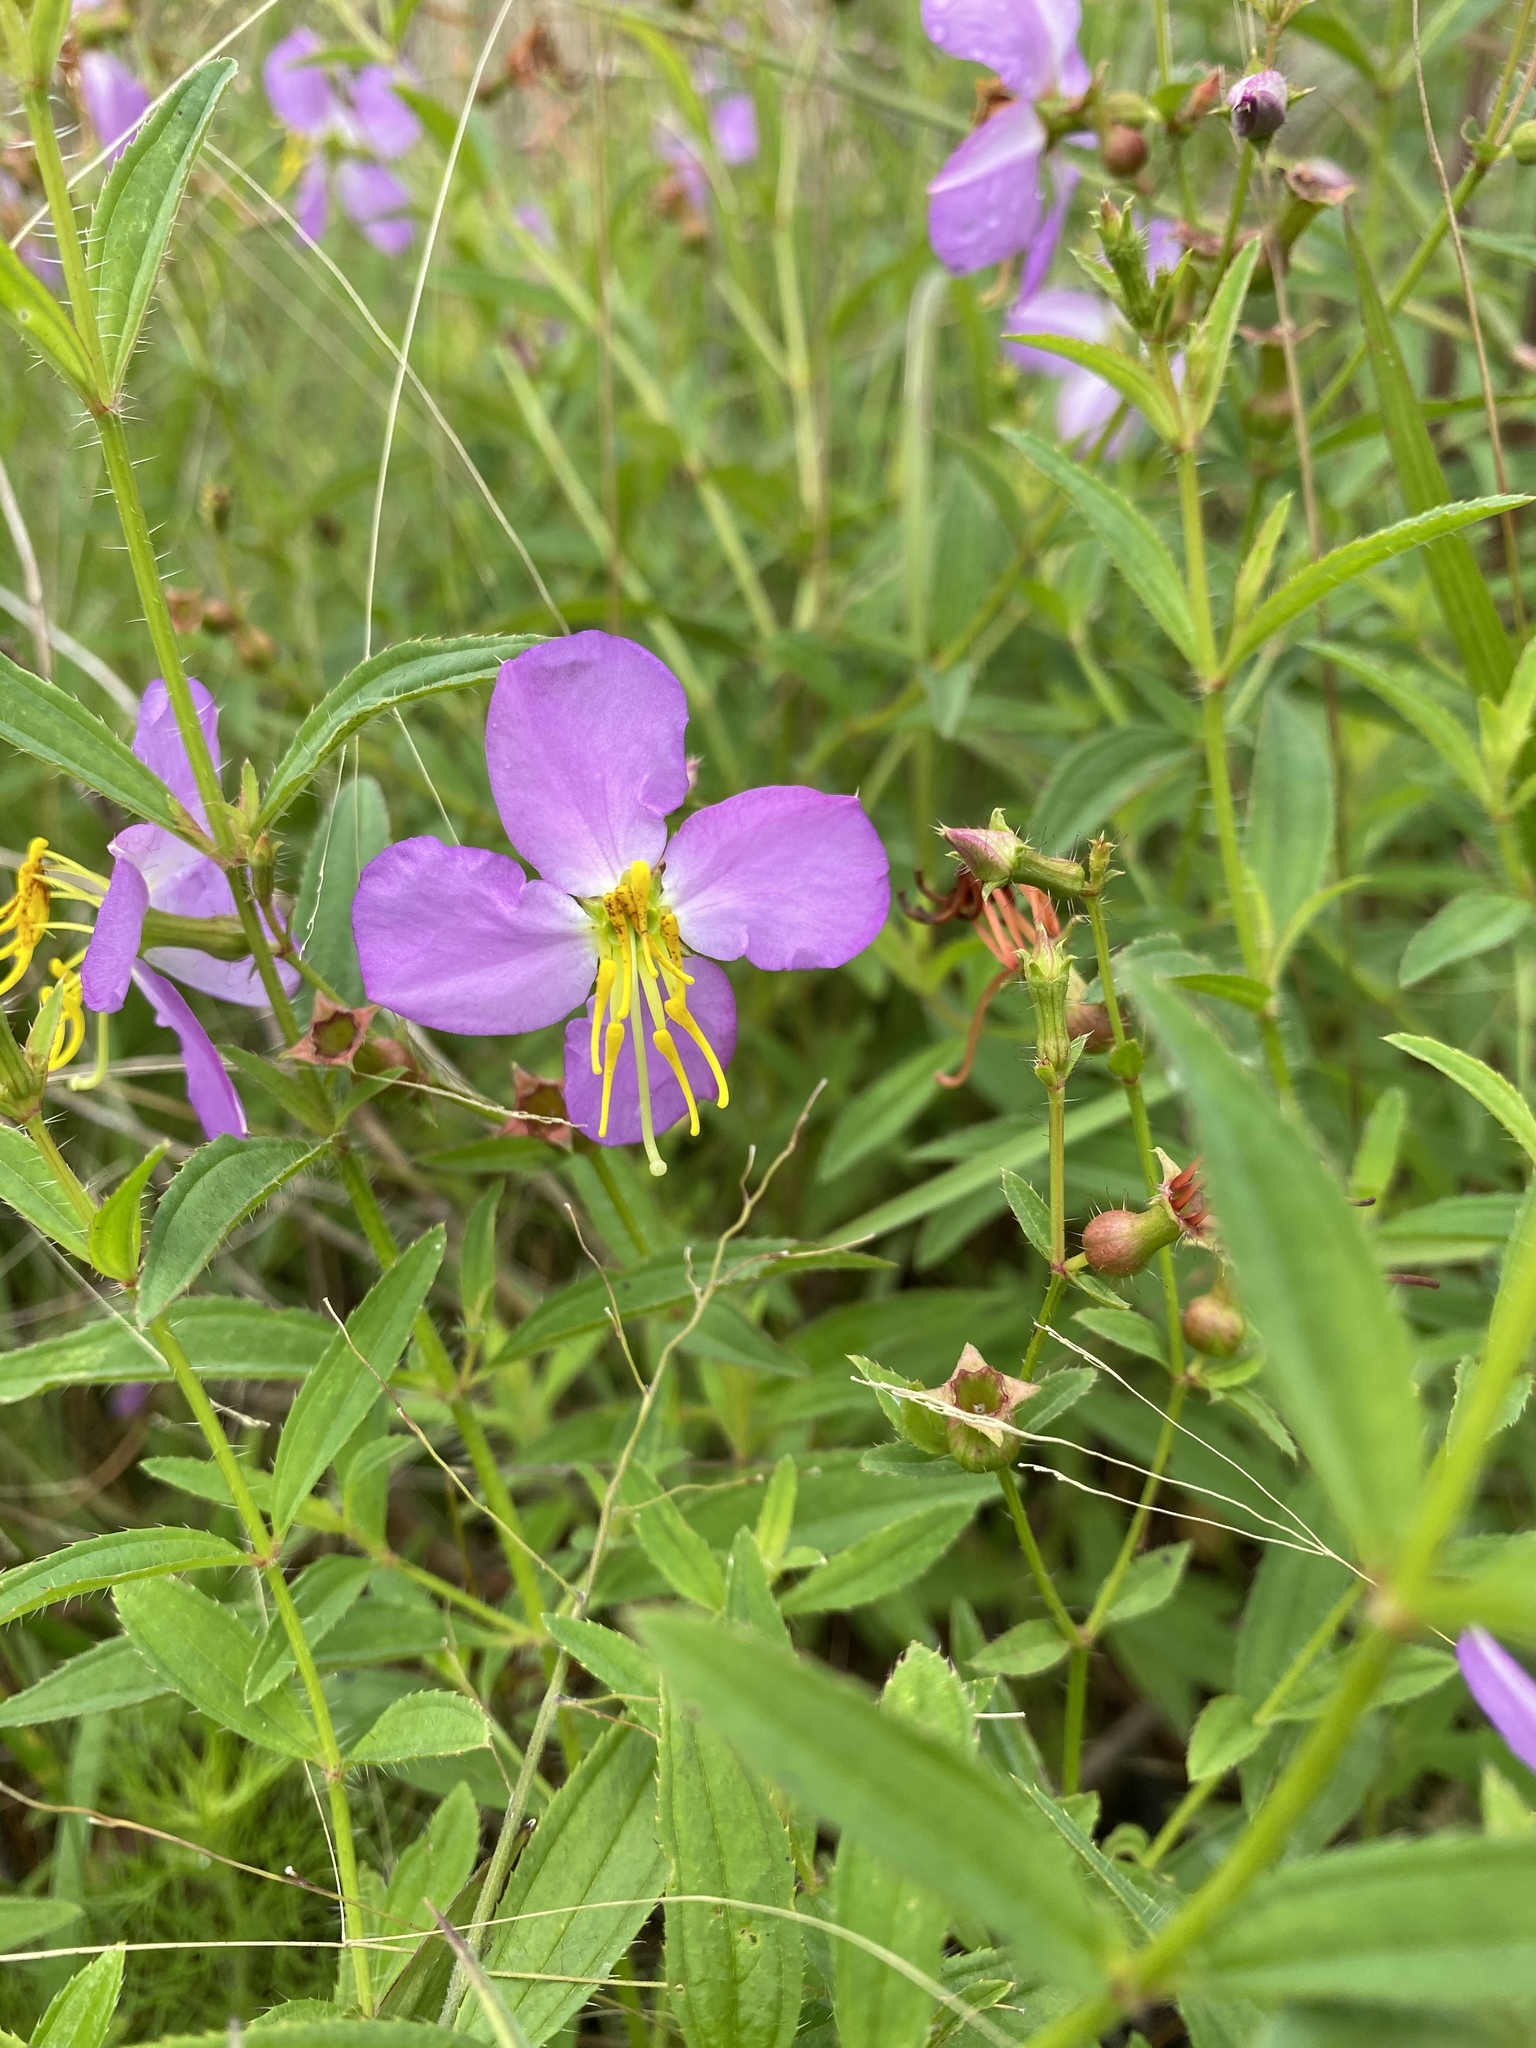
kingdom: Plantae
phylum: Tracheophyta
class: Magnoliopsida
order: Myrtales
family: Melastomataceae
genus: Rhexia
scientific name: Rhexia mariana
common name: Dull meadow-pitcher
